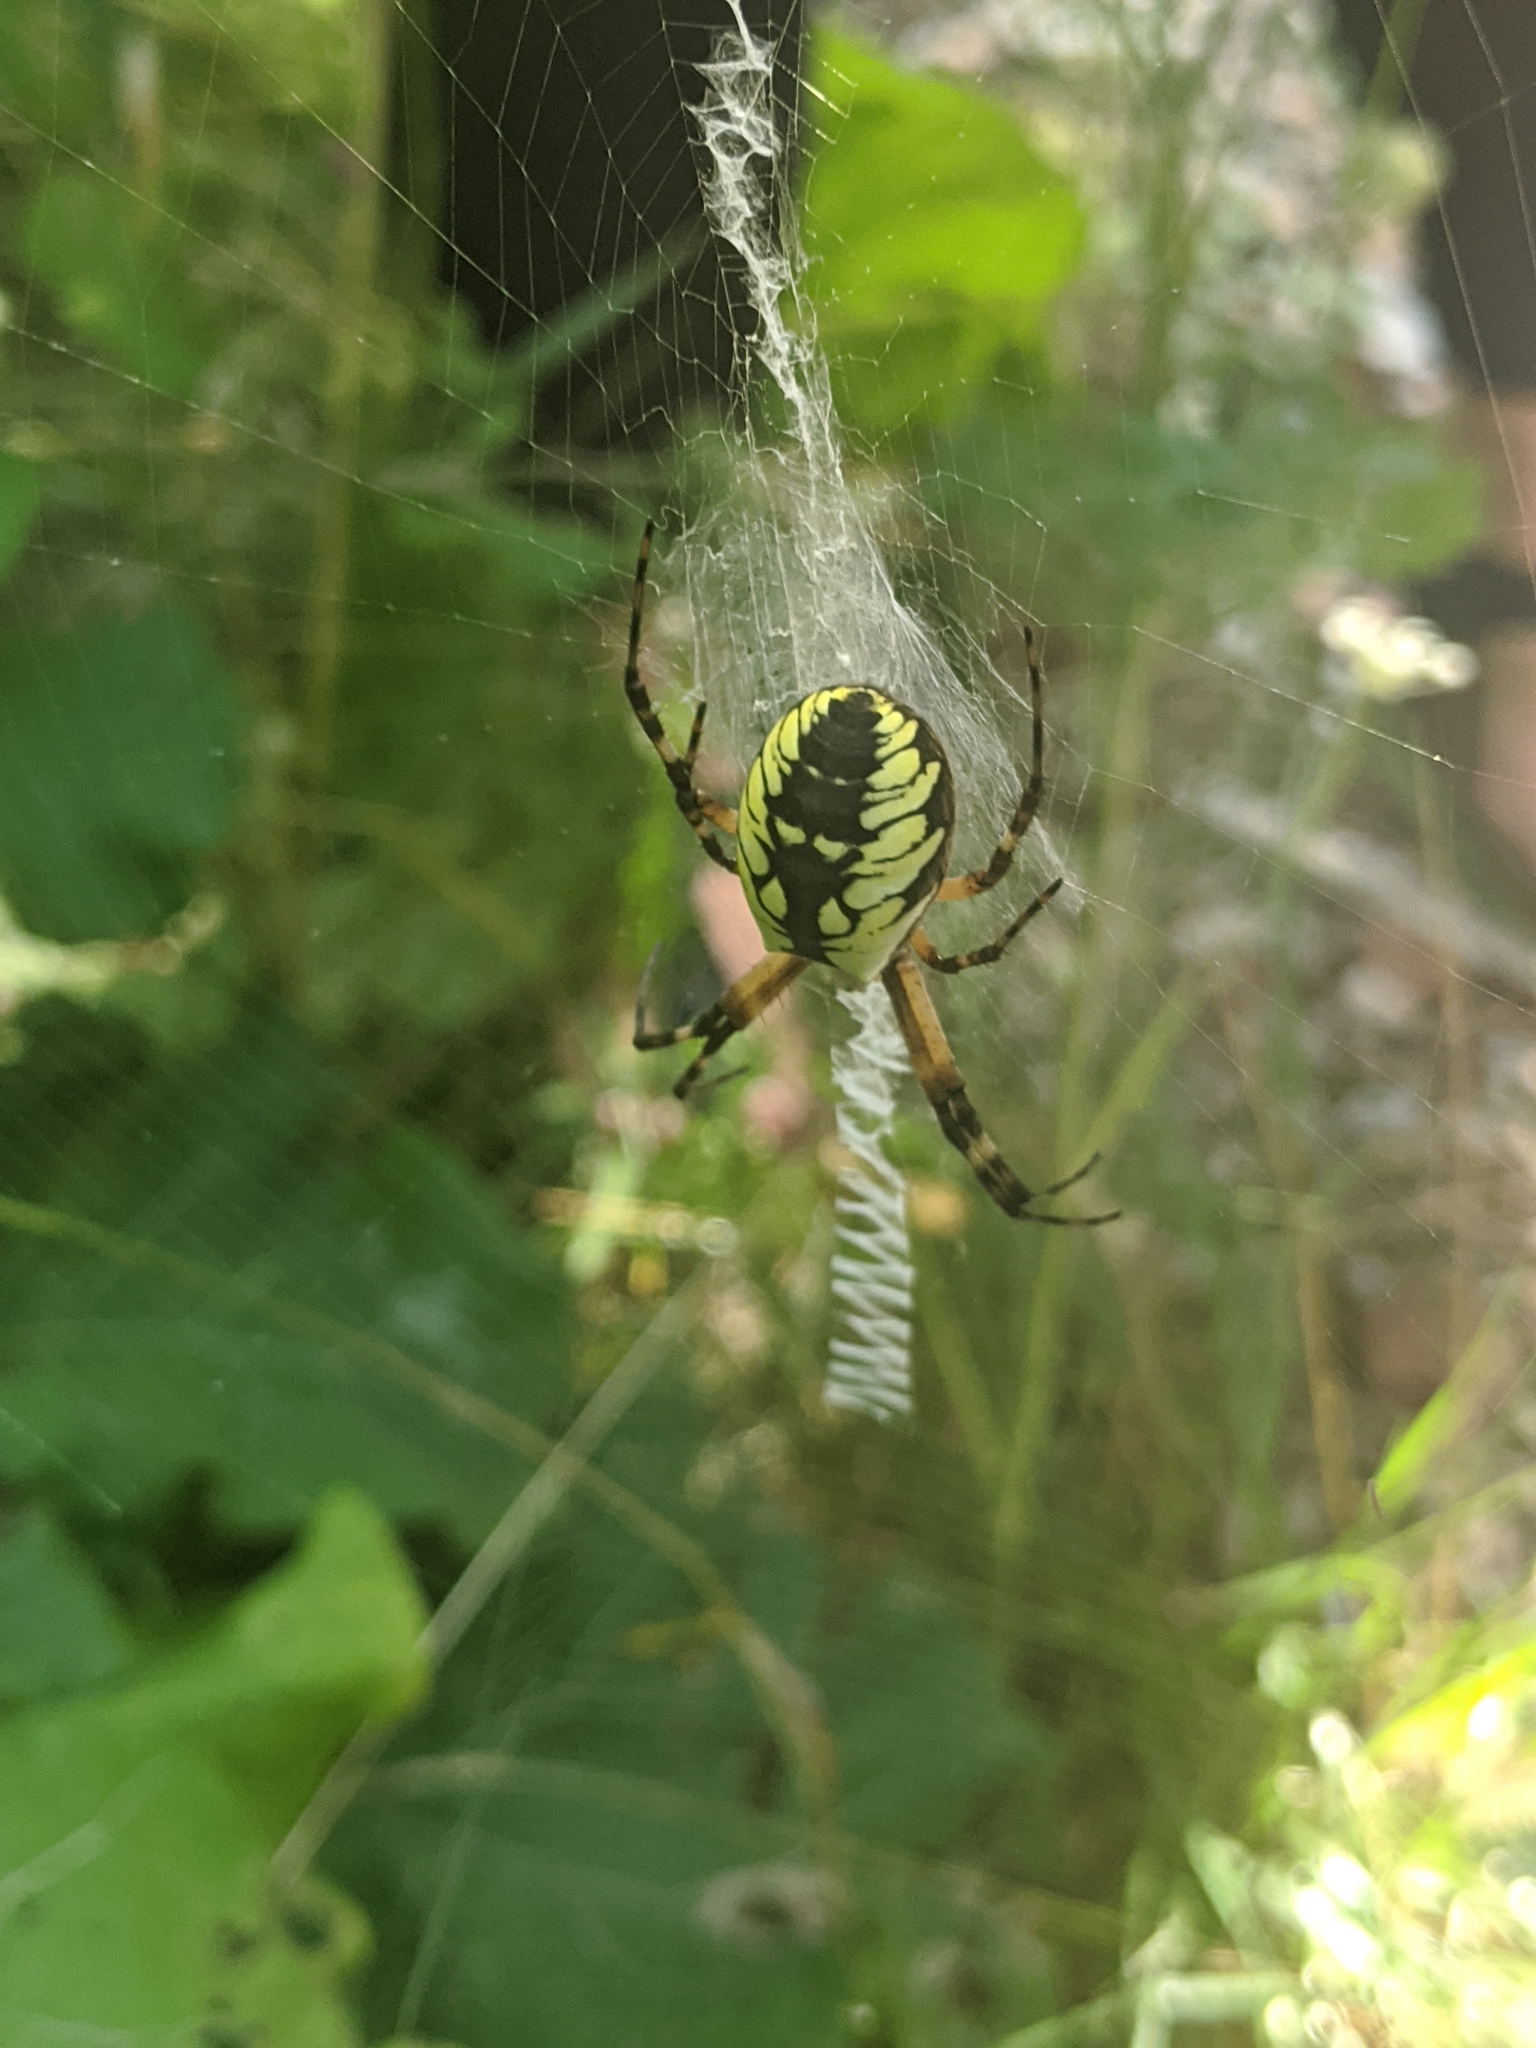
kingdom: Animalia
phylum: Arthropoda
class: Arachnida
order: Araneae
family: Araneidae
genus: Argiope
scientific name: Argiope aurantia
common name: Orb weavers
